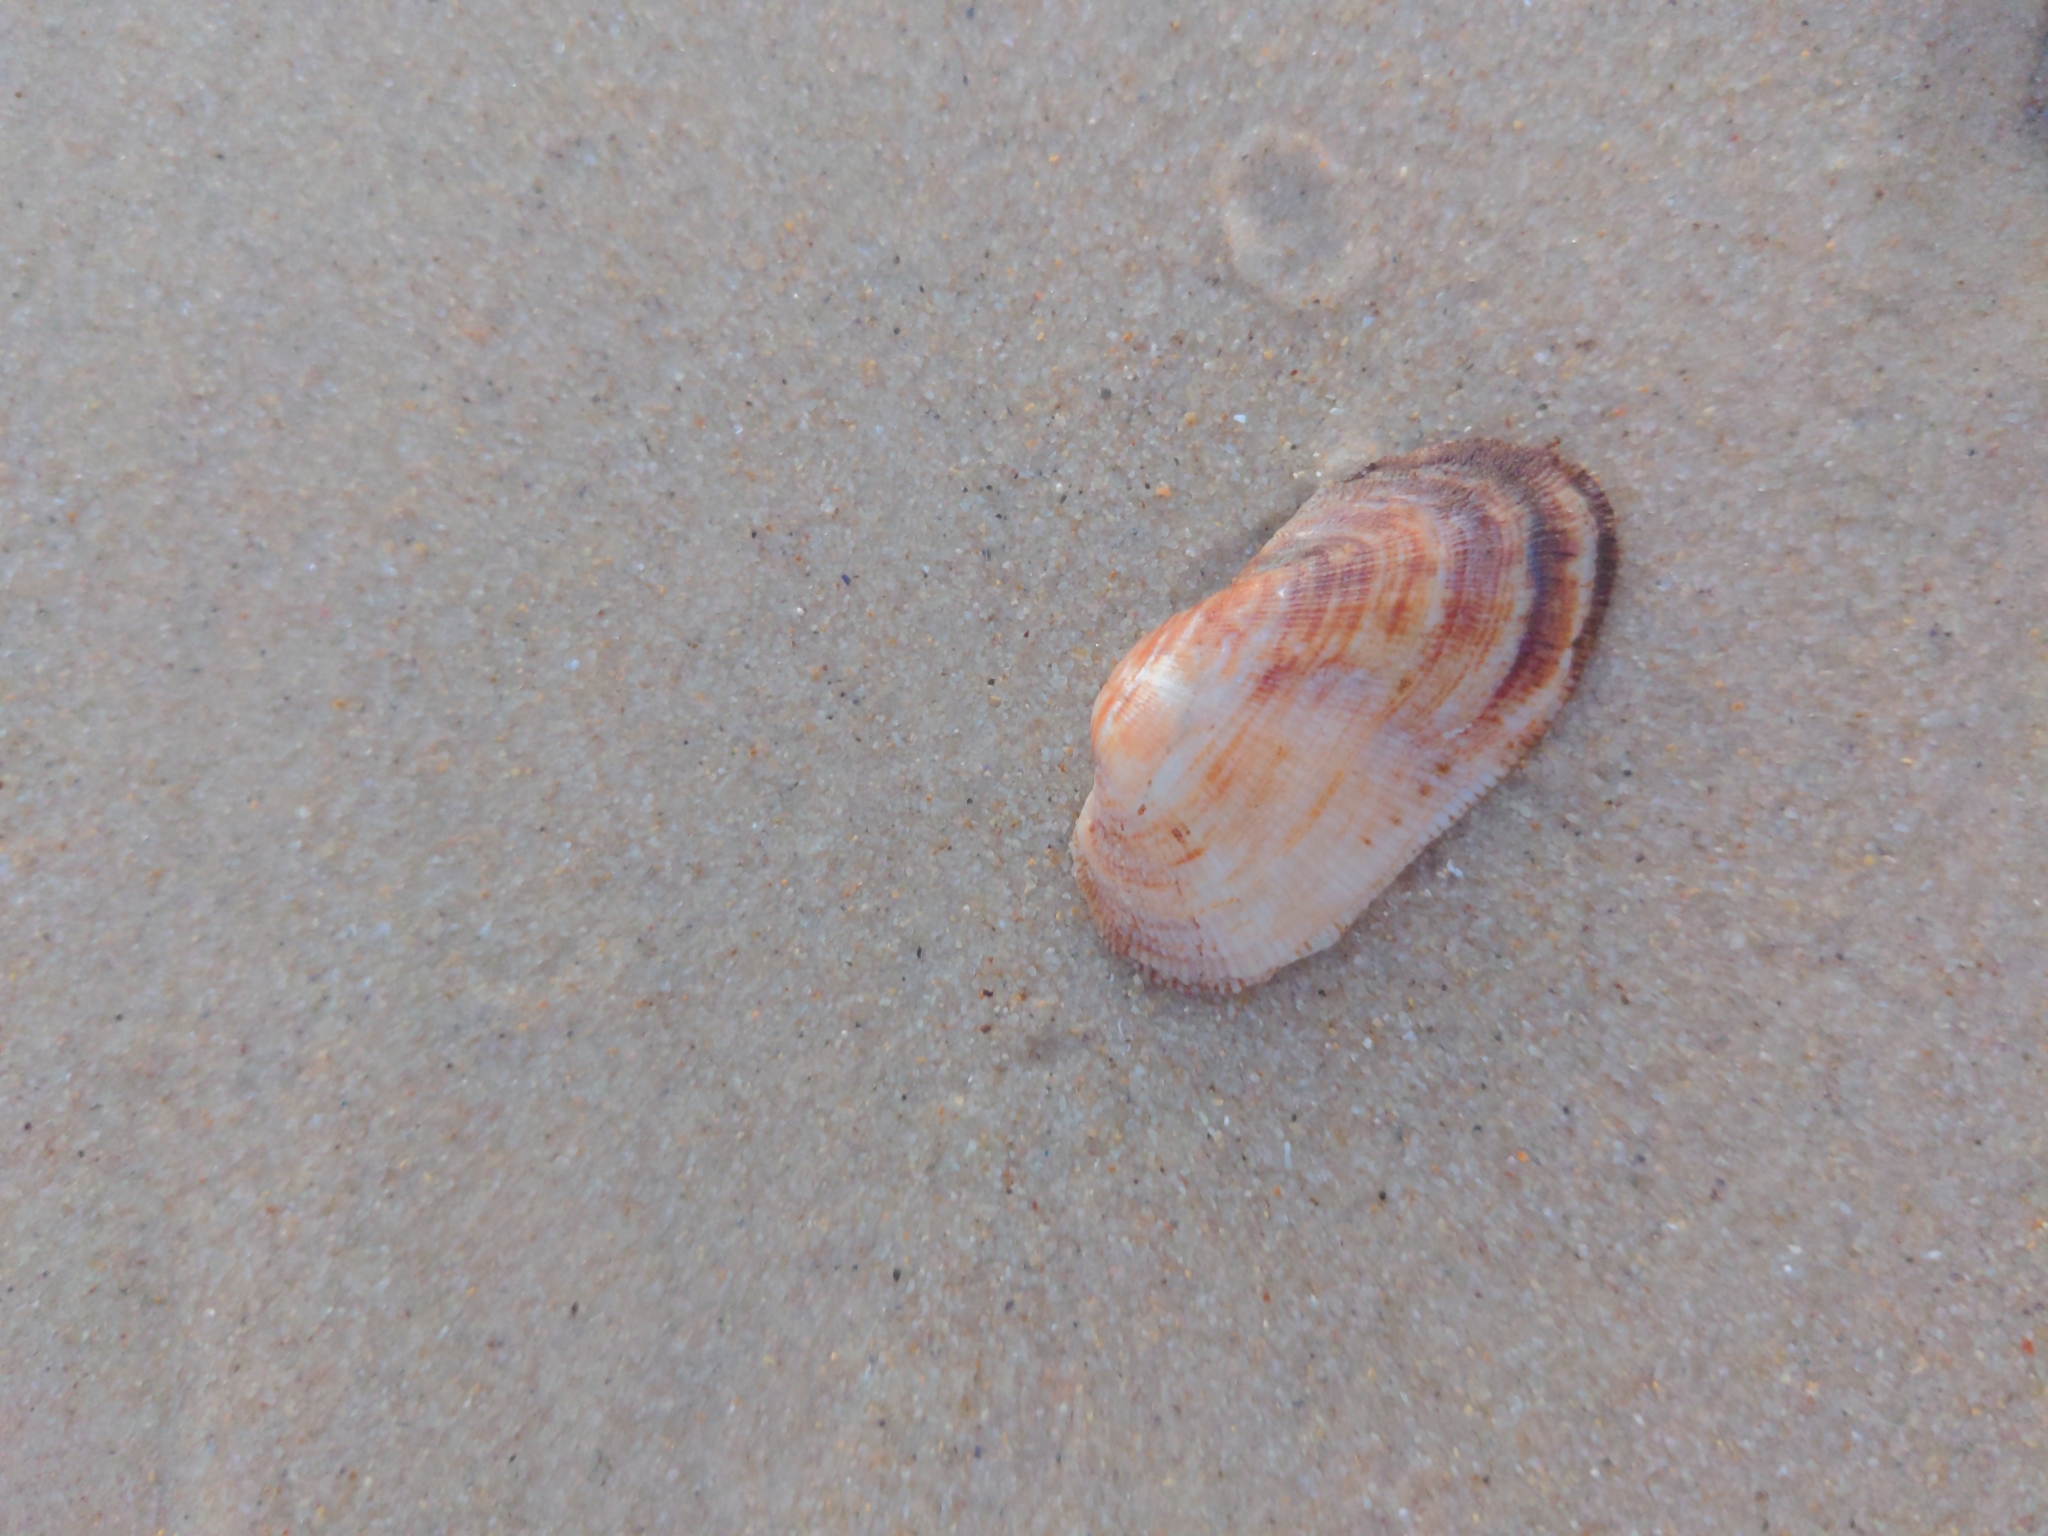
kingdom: Animalia
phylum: Mollusca
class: Bivalvia
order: Arcida
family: Arcidae
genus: Barbatia
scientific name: Barbatia pistachia
